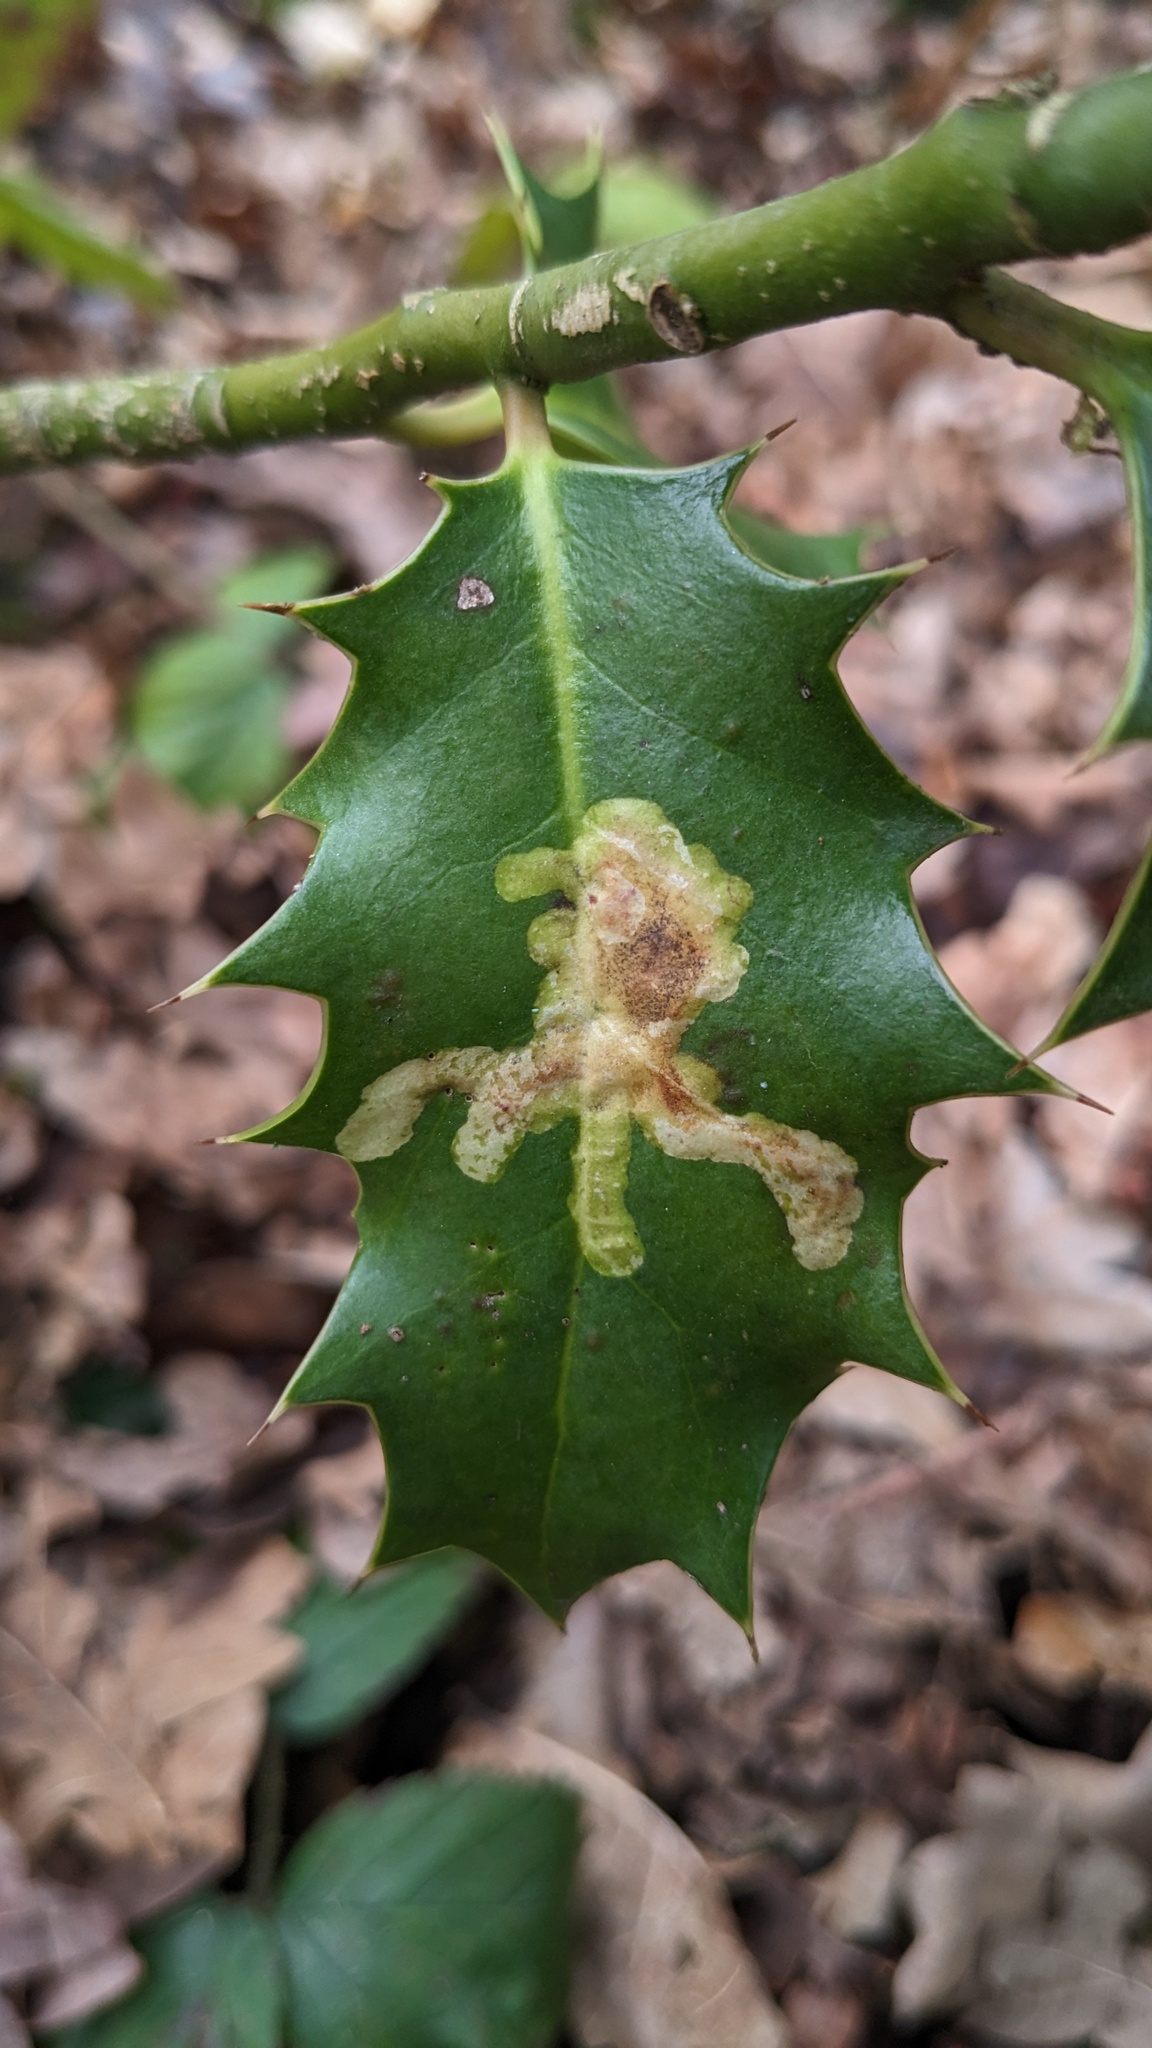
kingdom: Animalia
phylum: Arthropoda
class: Insecta
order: Diptera
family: Agromyzidae
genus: Phytomyza
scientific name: Phytomyza ilicis
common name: Holly leafminer
